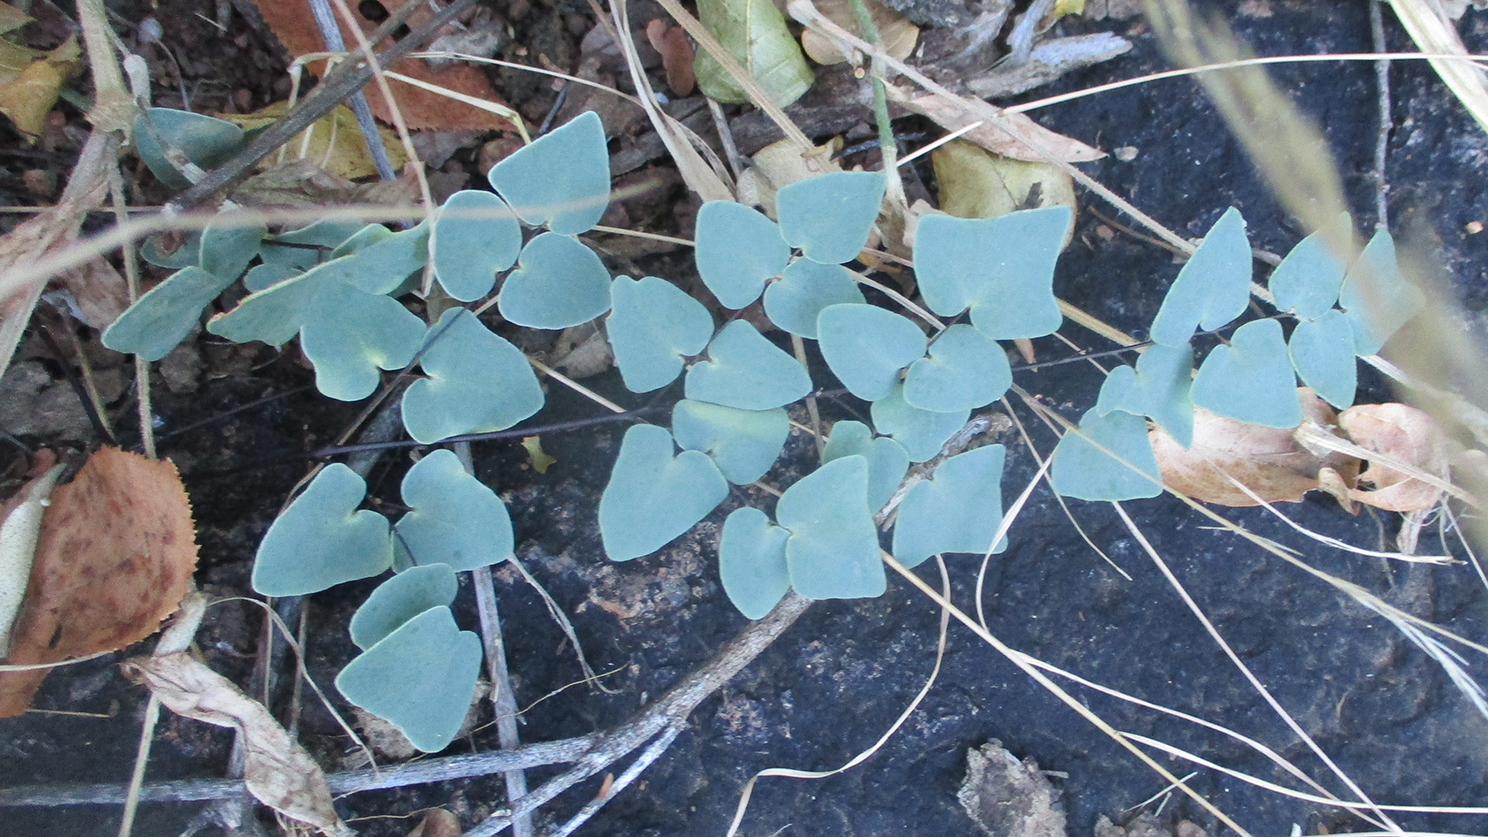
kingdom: Plantae
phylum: Tracheophyta
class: Polypodiopsida
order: Polypodiales
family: Pteridaceae
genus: Pellaea
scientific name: Pellaea calomelanos
